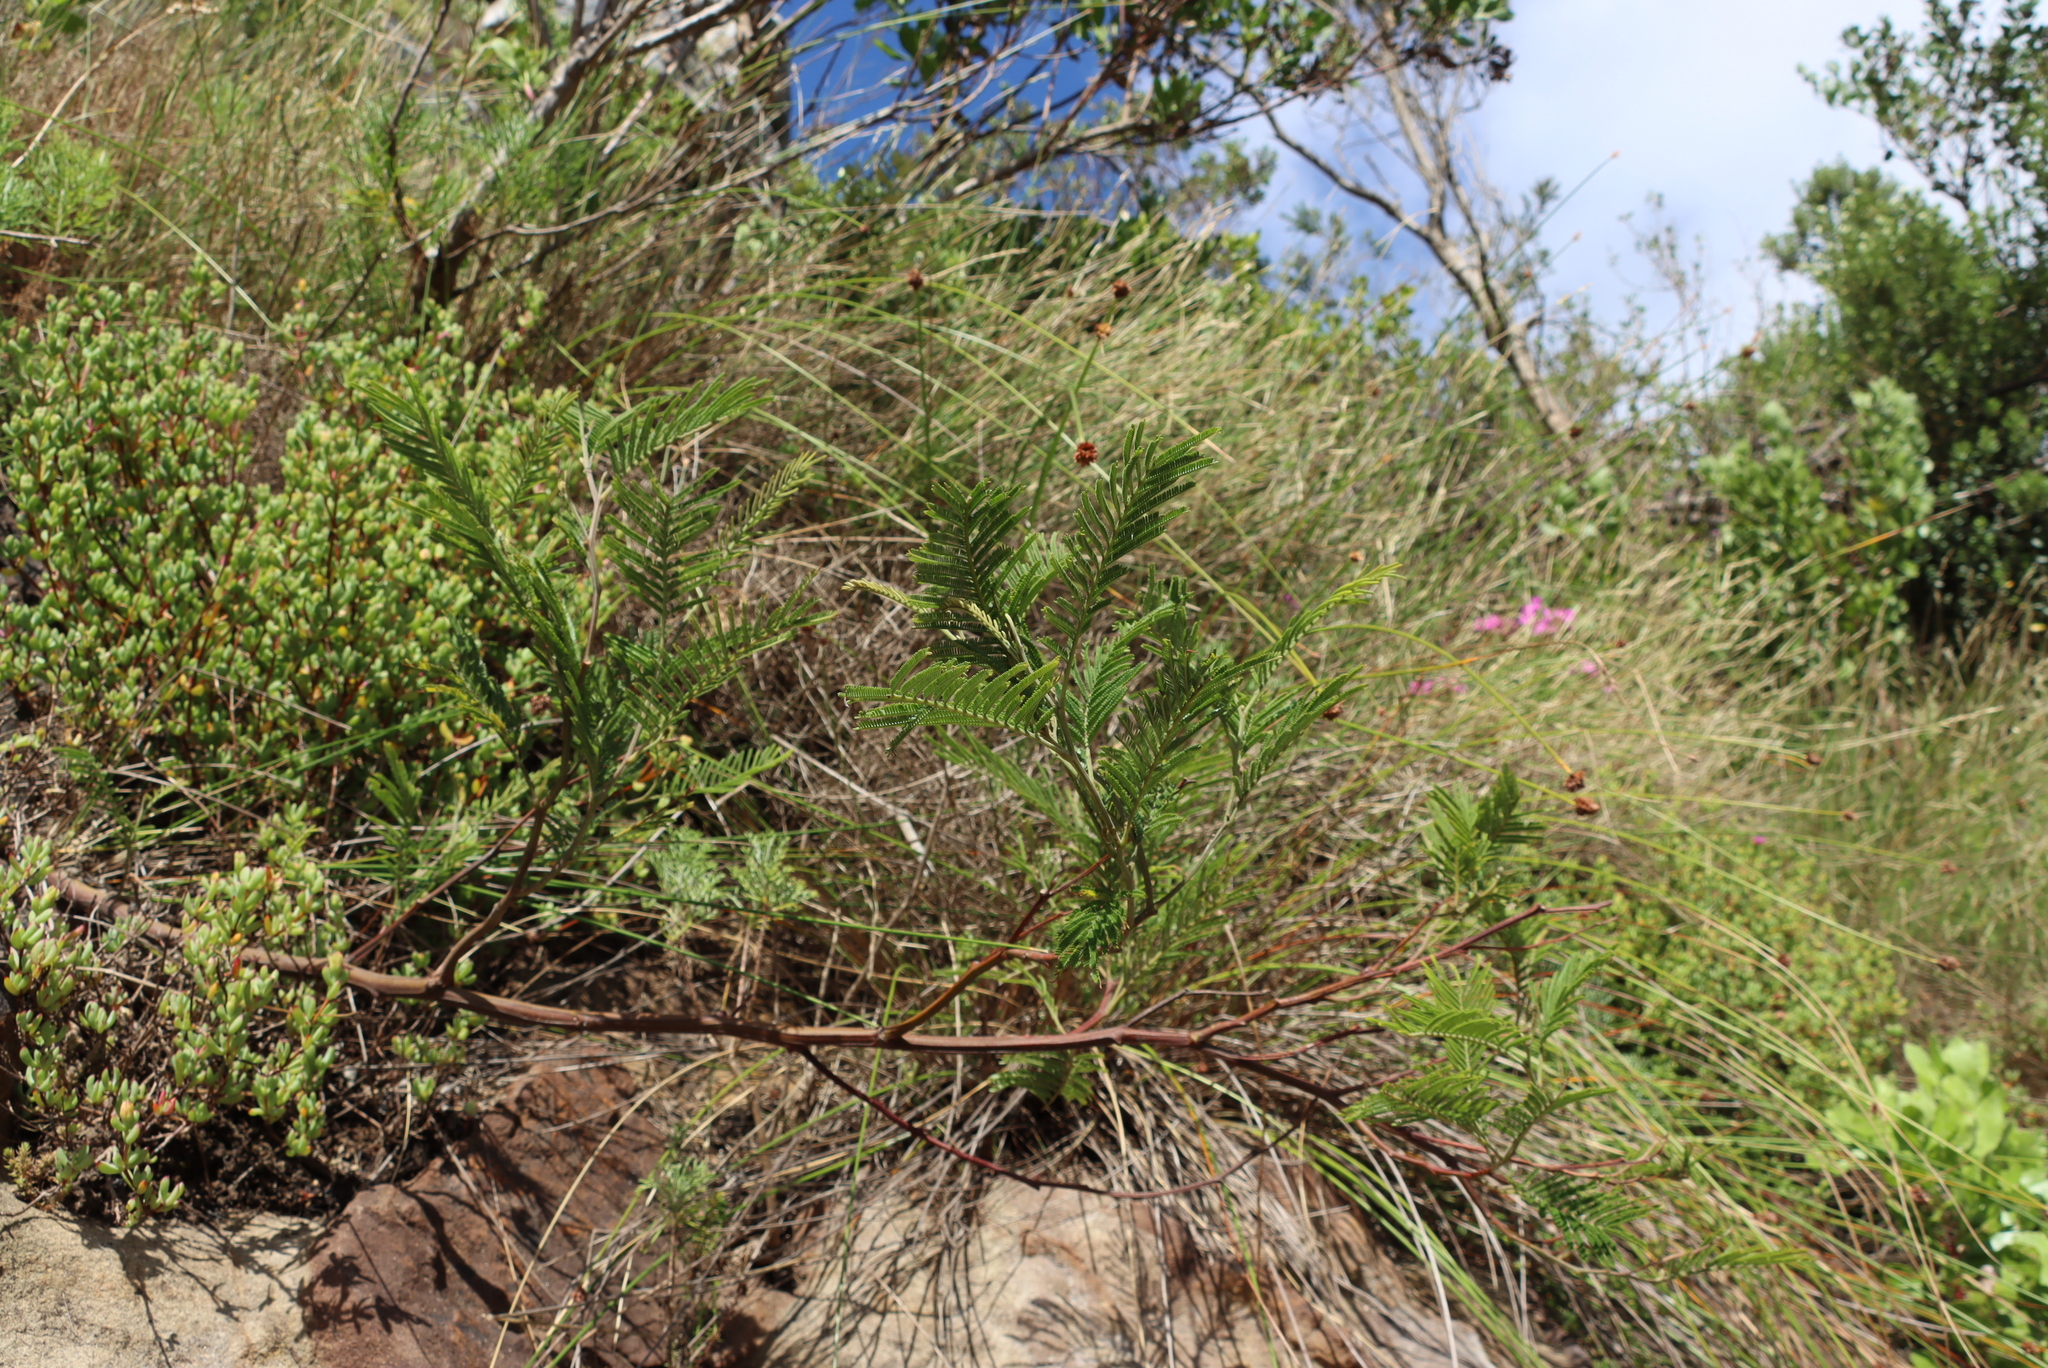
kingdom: Plantae
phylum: Tracheophyta
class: Magnoliopsida
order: Fabales
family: Fabaceae
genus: Acacia
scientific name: Acacia mearnsii
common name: Black wattle
